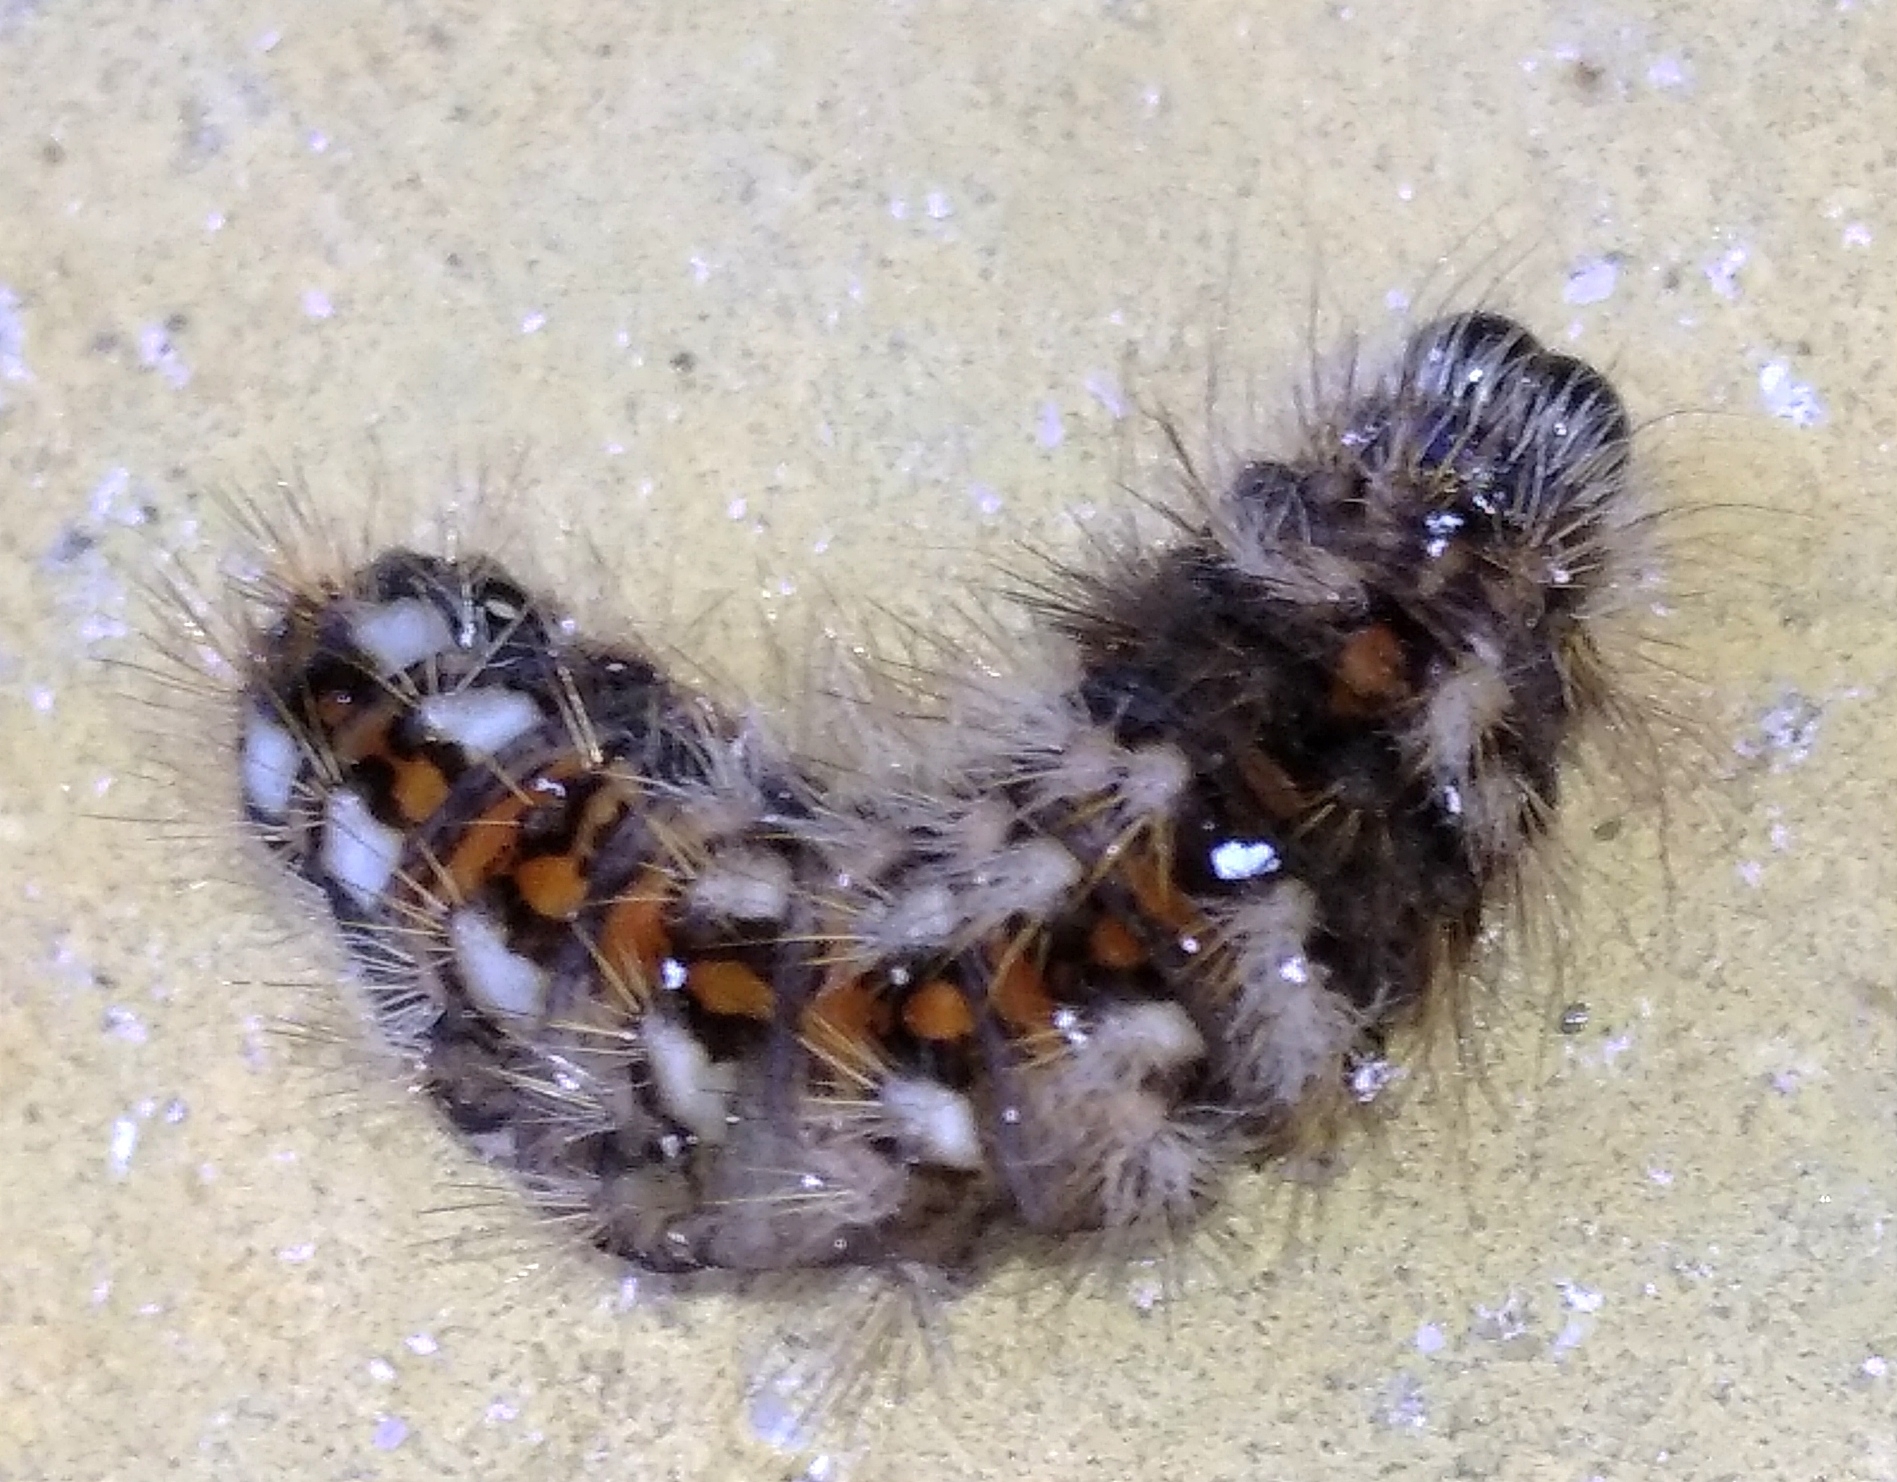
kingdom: Animalia
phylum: Arthropoda
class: Insecta
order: Lepidoptera
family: Noctuidae
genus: Acronicta
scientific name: Acronicta rumicis
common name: Knot grass
